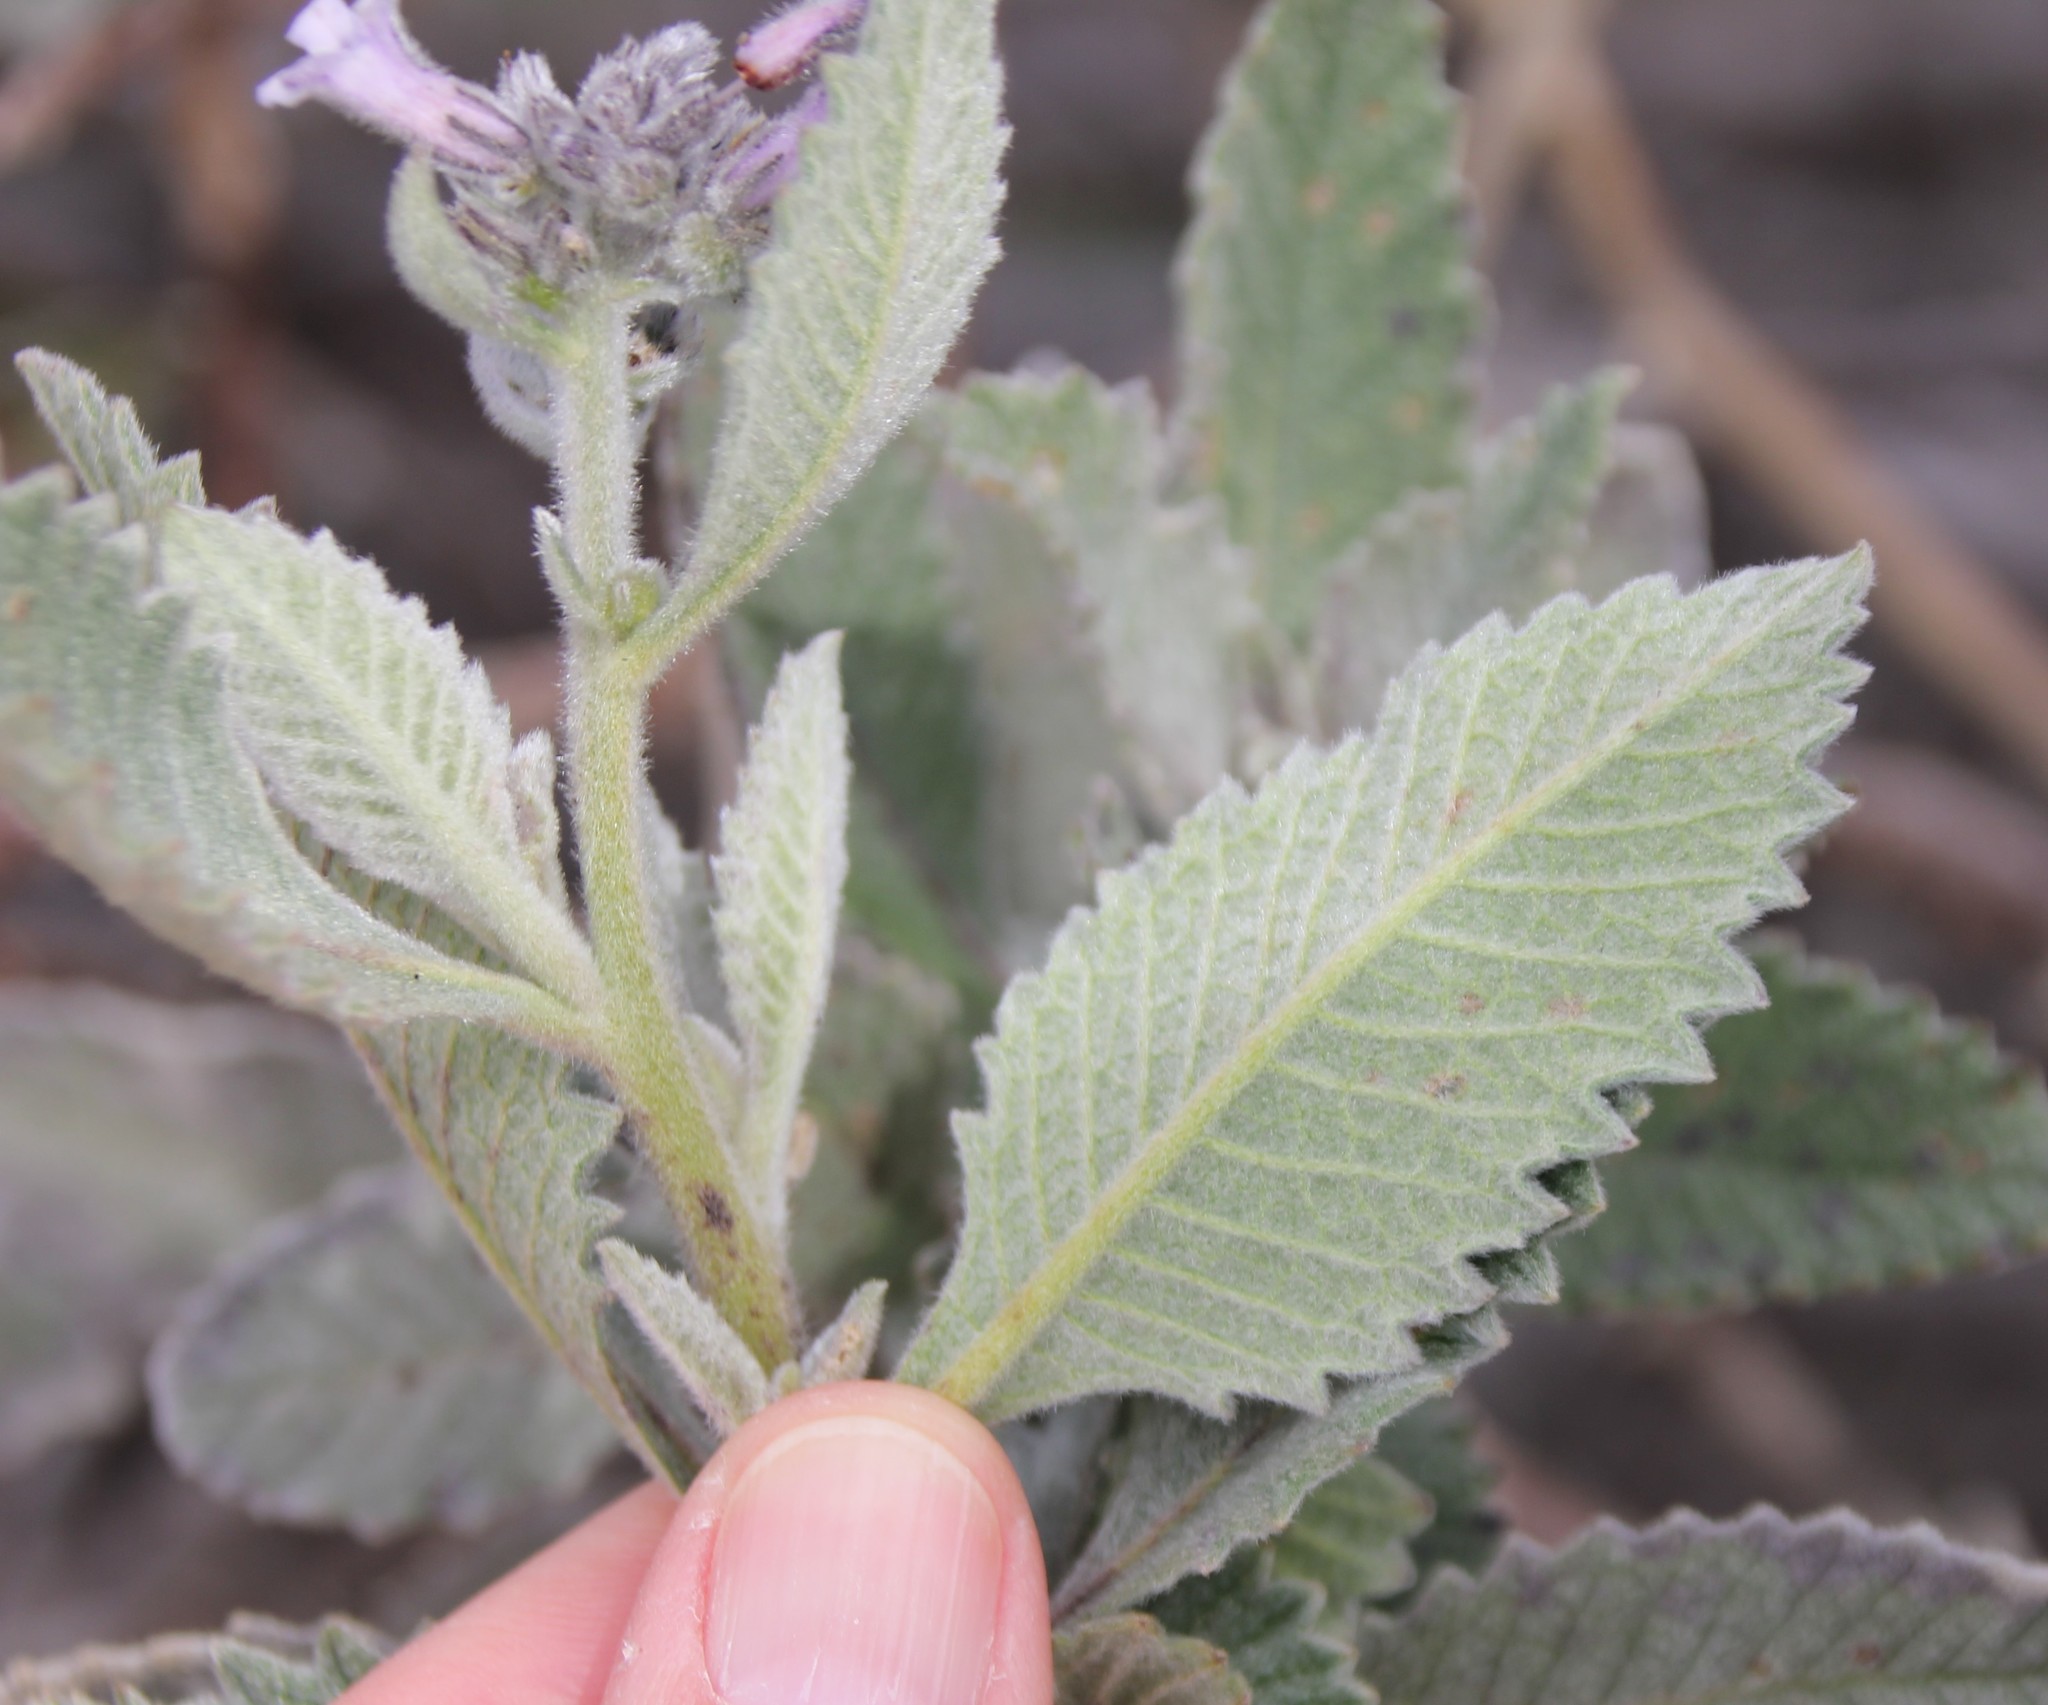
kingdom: Plantae
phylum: Tracheophyta
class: Magnoliopsida
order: Boraginales
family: Namaceae
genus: Eriodictyon
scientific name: Eriodictyon crassifolium
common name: Thick-leaf yerba-santa
